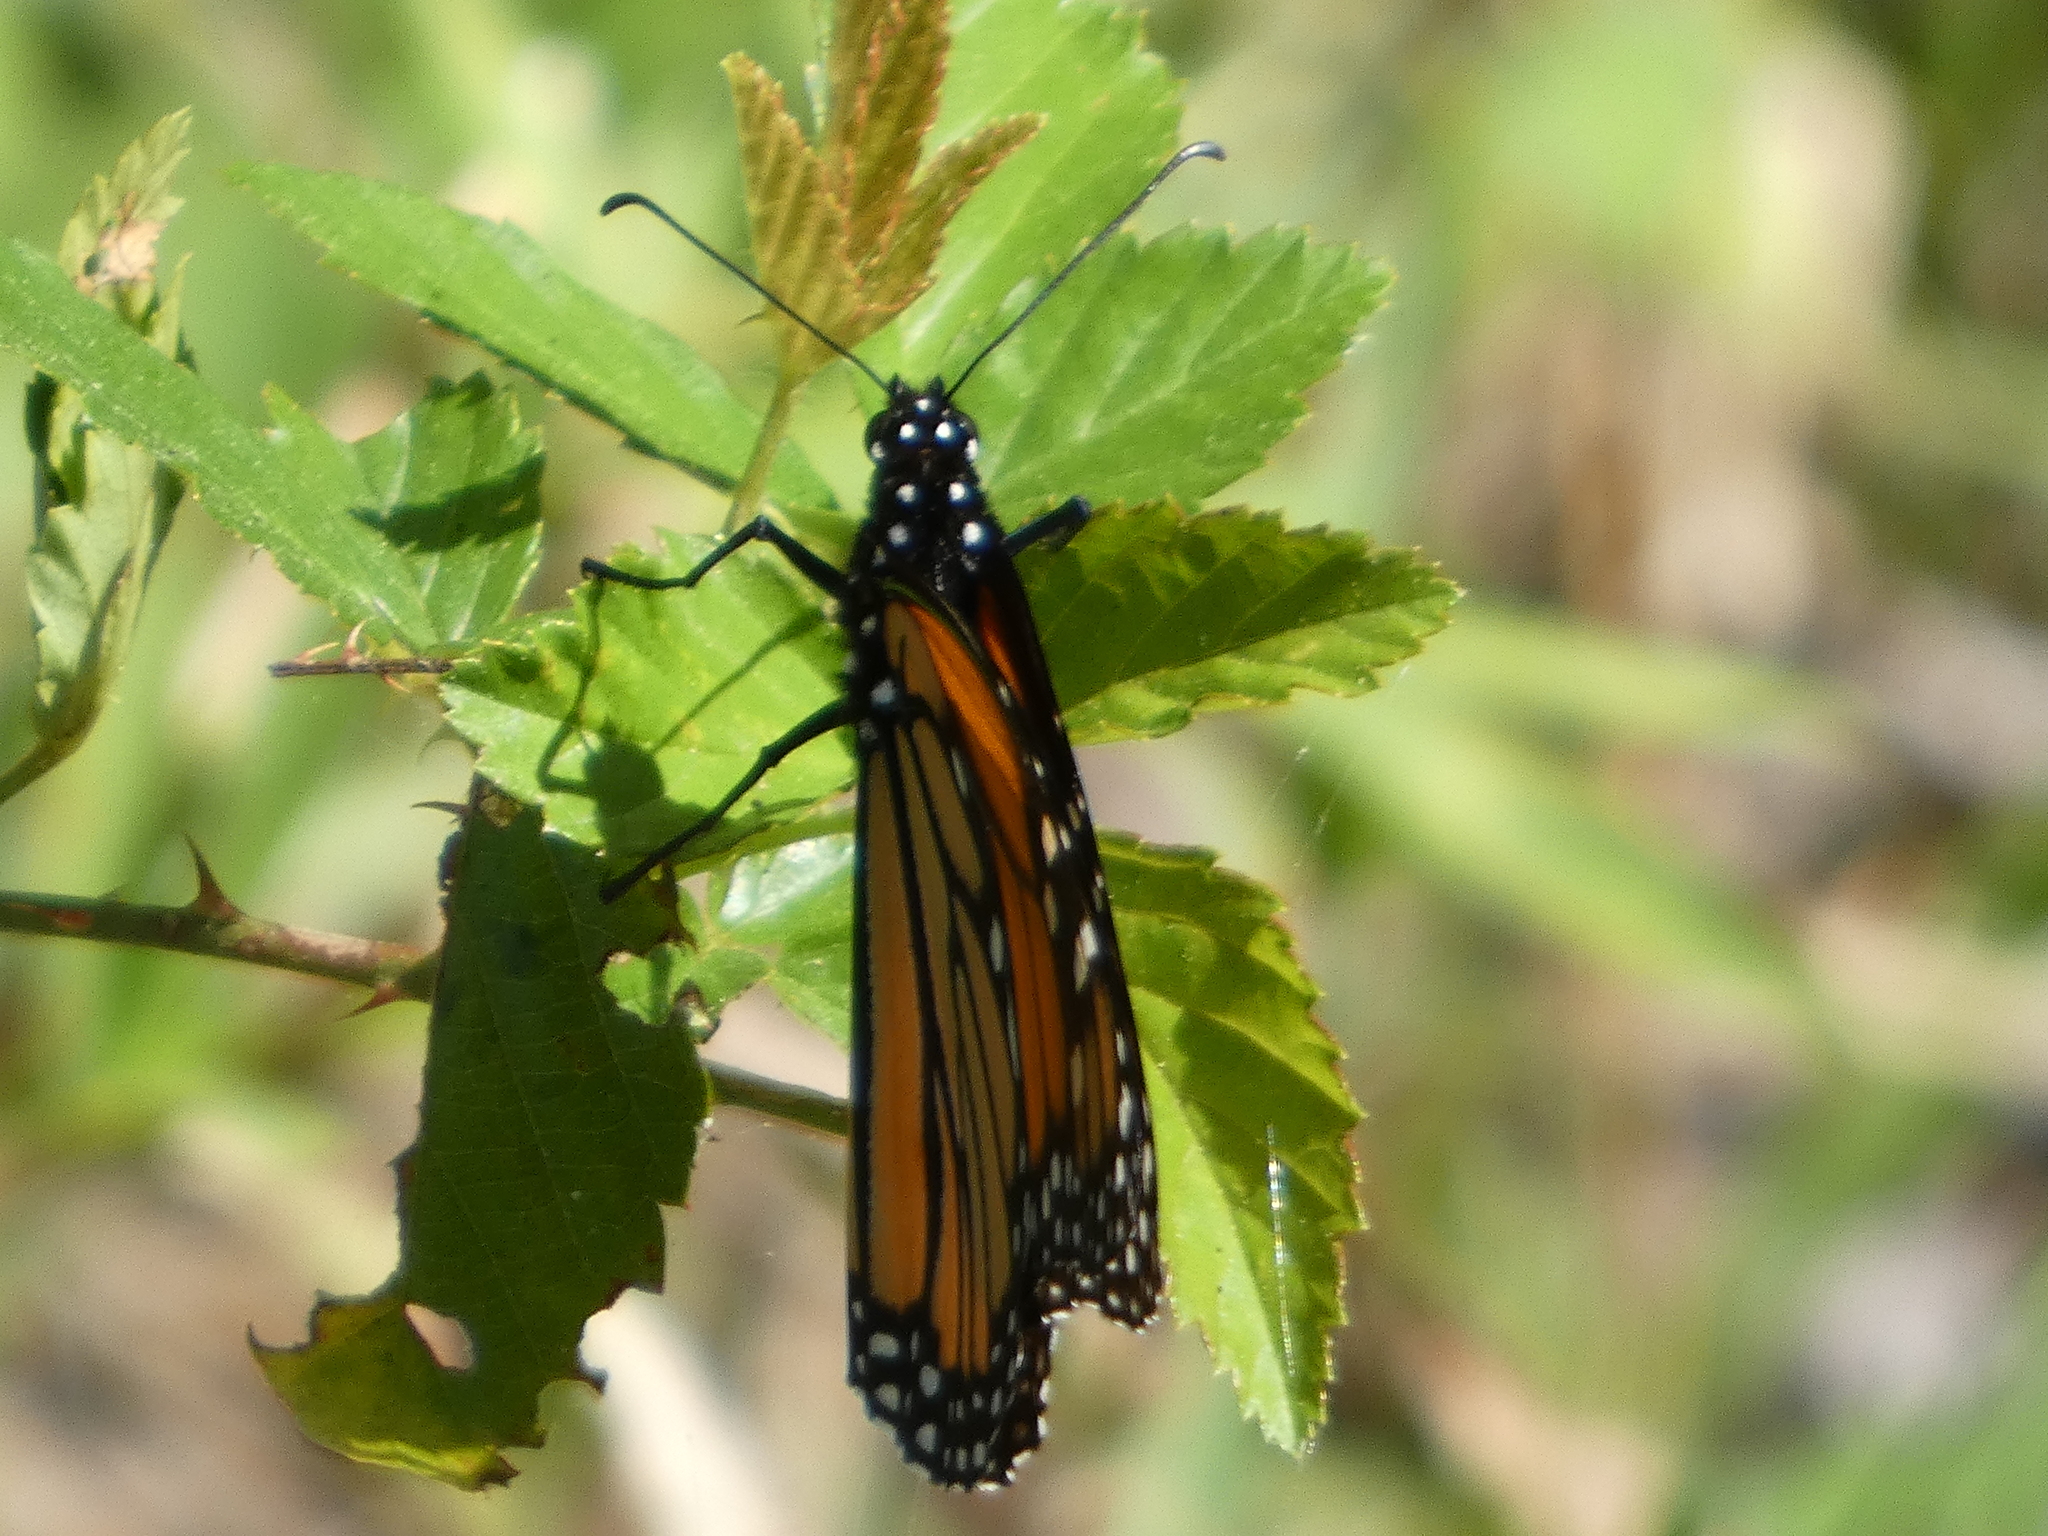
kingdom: Animalia
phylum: Arthropoda
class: Insecta
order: Lepidoptera
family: Nymphalidae
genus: Danaus
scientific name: Danaus plexippus
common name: Monarch
